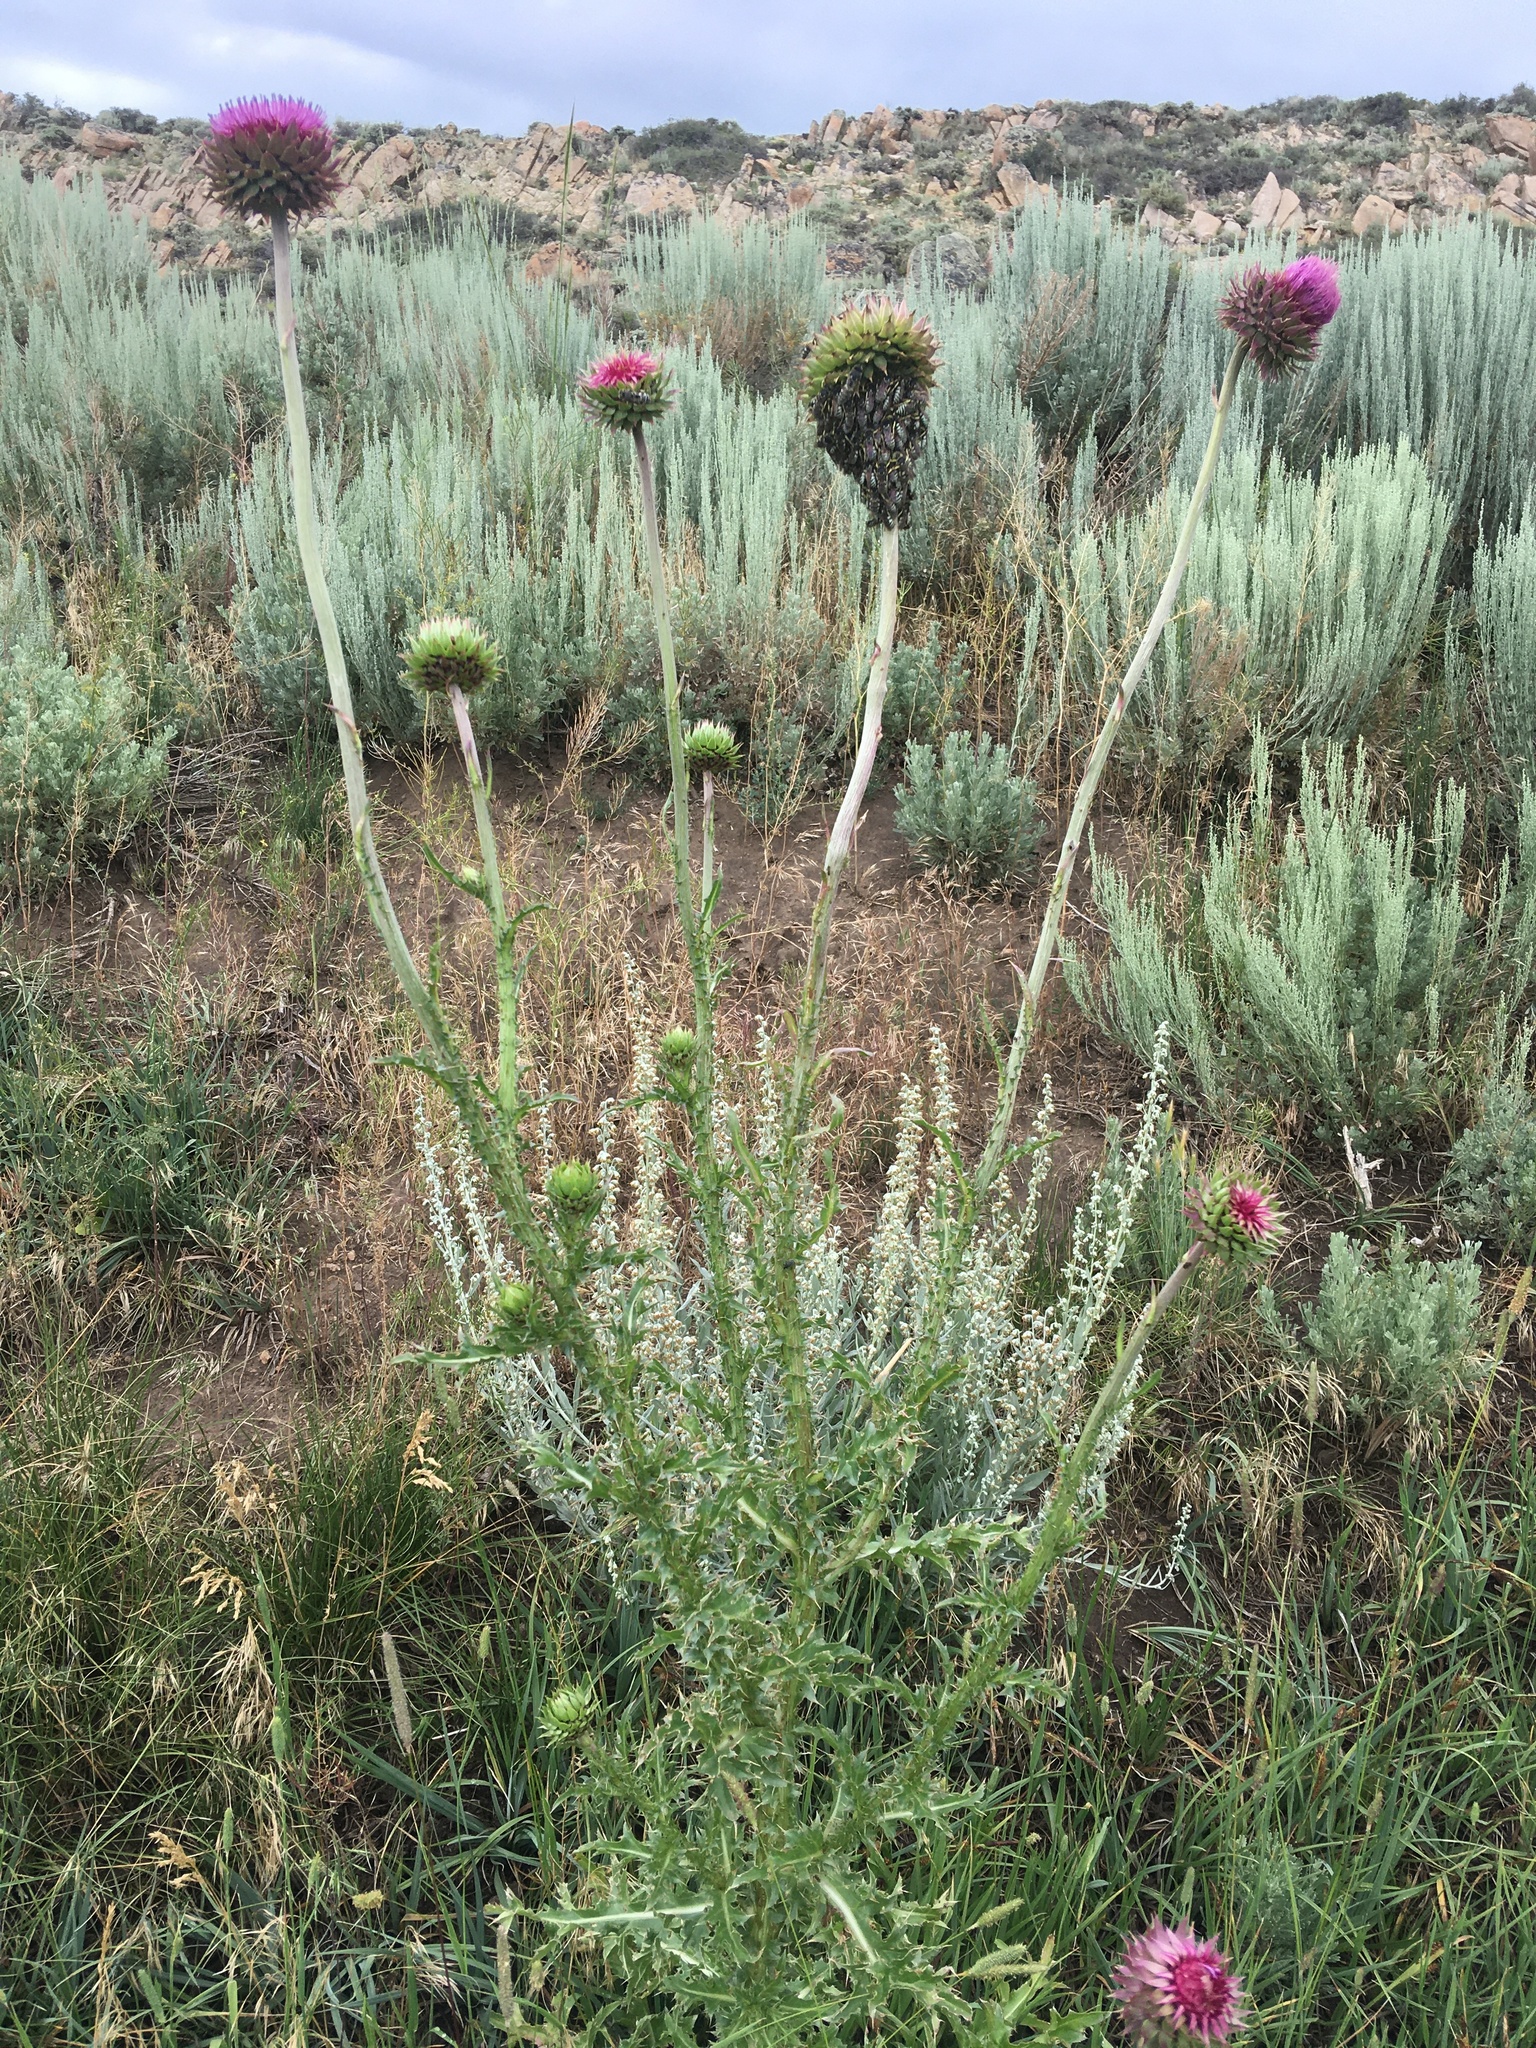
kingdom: Plantae
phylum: Tracheophyta
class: Magnoliopsida
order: Asterales
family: Asteraceae
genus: Carduus
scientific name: Carduus nutans
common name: Musk thistle
